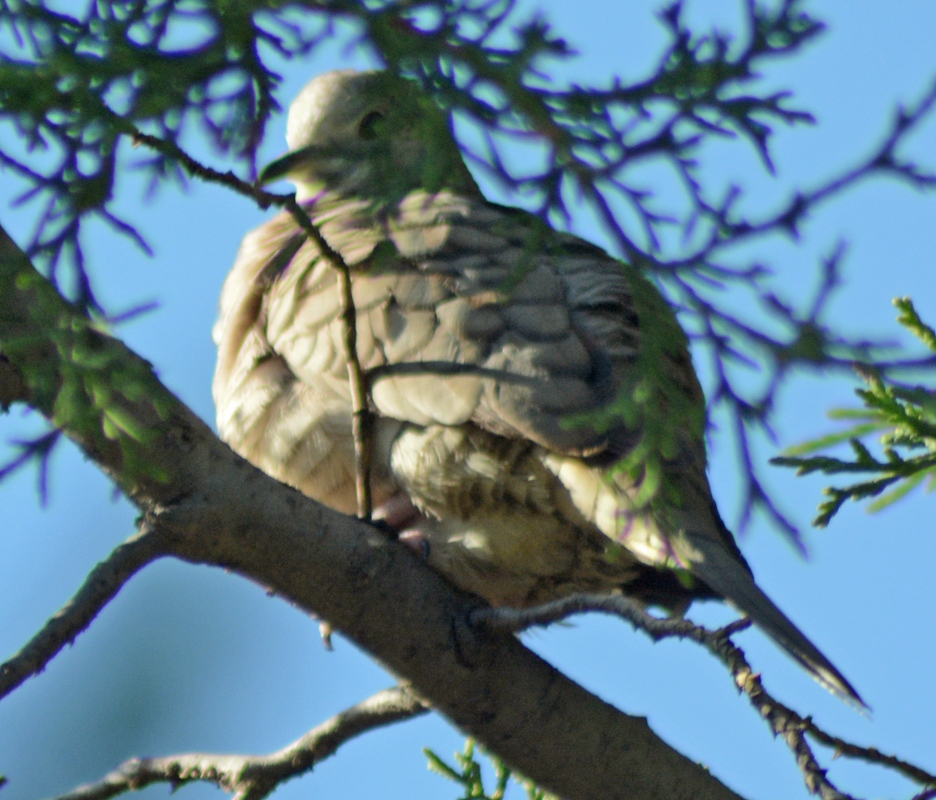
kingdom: Animalia
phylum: Chordata
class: Aves
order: Columbiformes
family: Columbidae
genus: Columbina
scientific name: Columbina inca
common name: Inca dove
